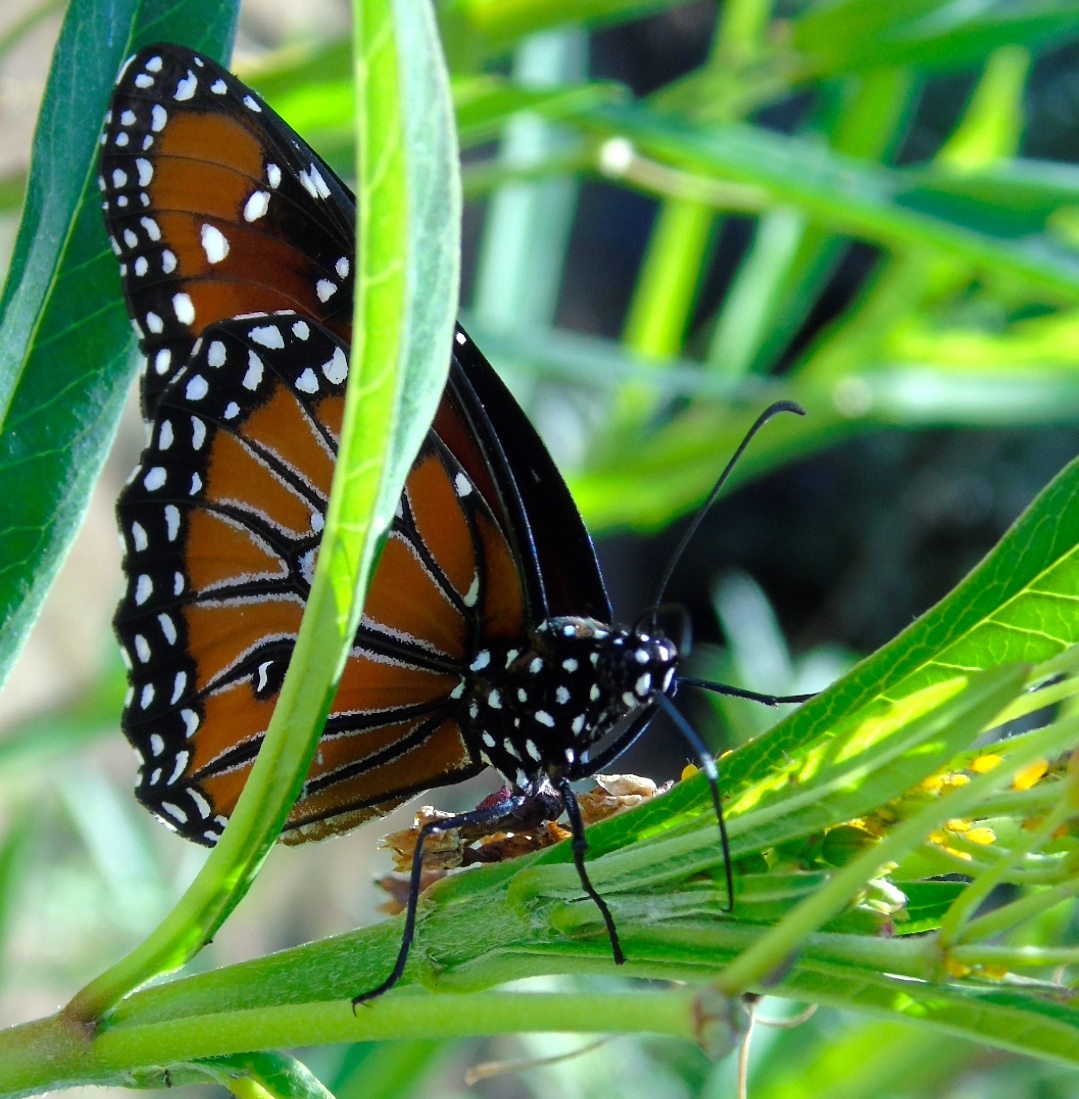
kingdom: Animalia
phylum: Arthropoda
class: Insecta
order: Lepidoptera
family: Nymphalidae
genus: Danaus
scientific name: Danaus gilippus
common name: Queen
